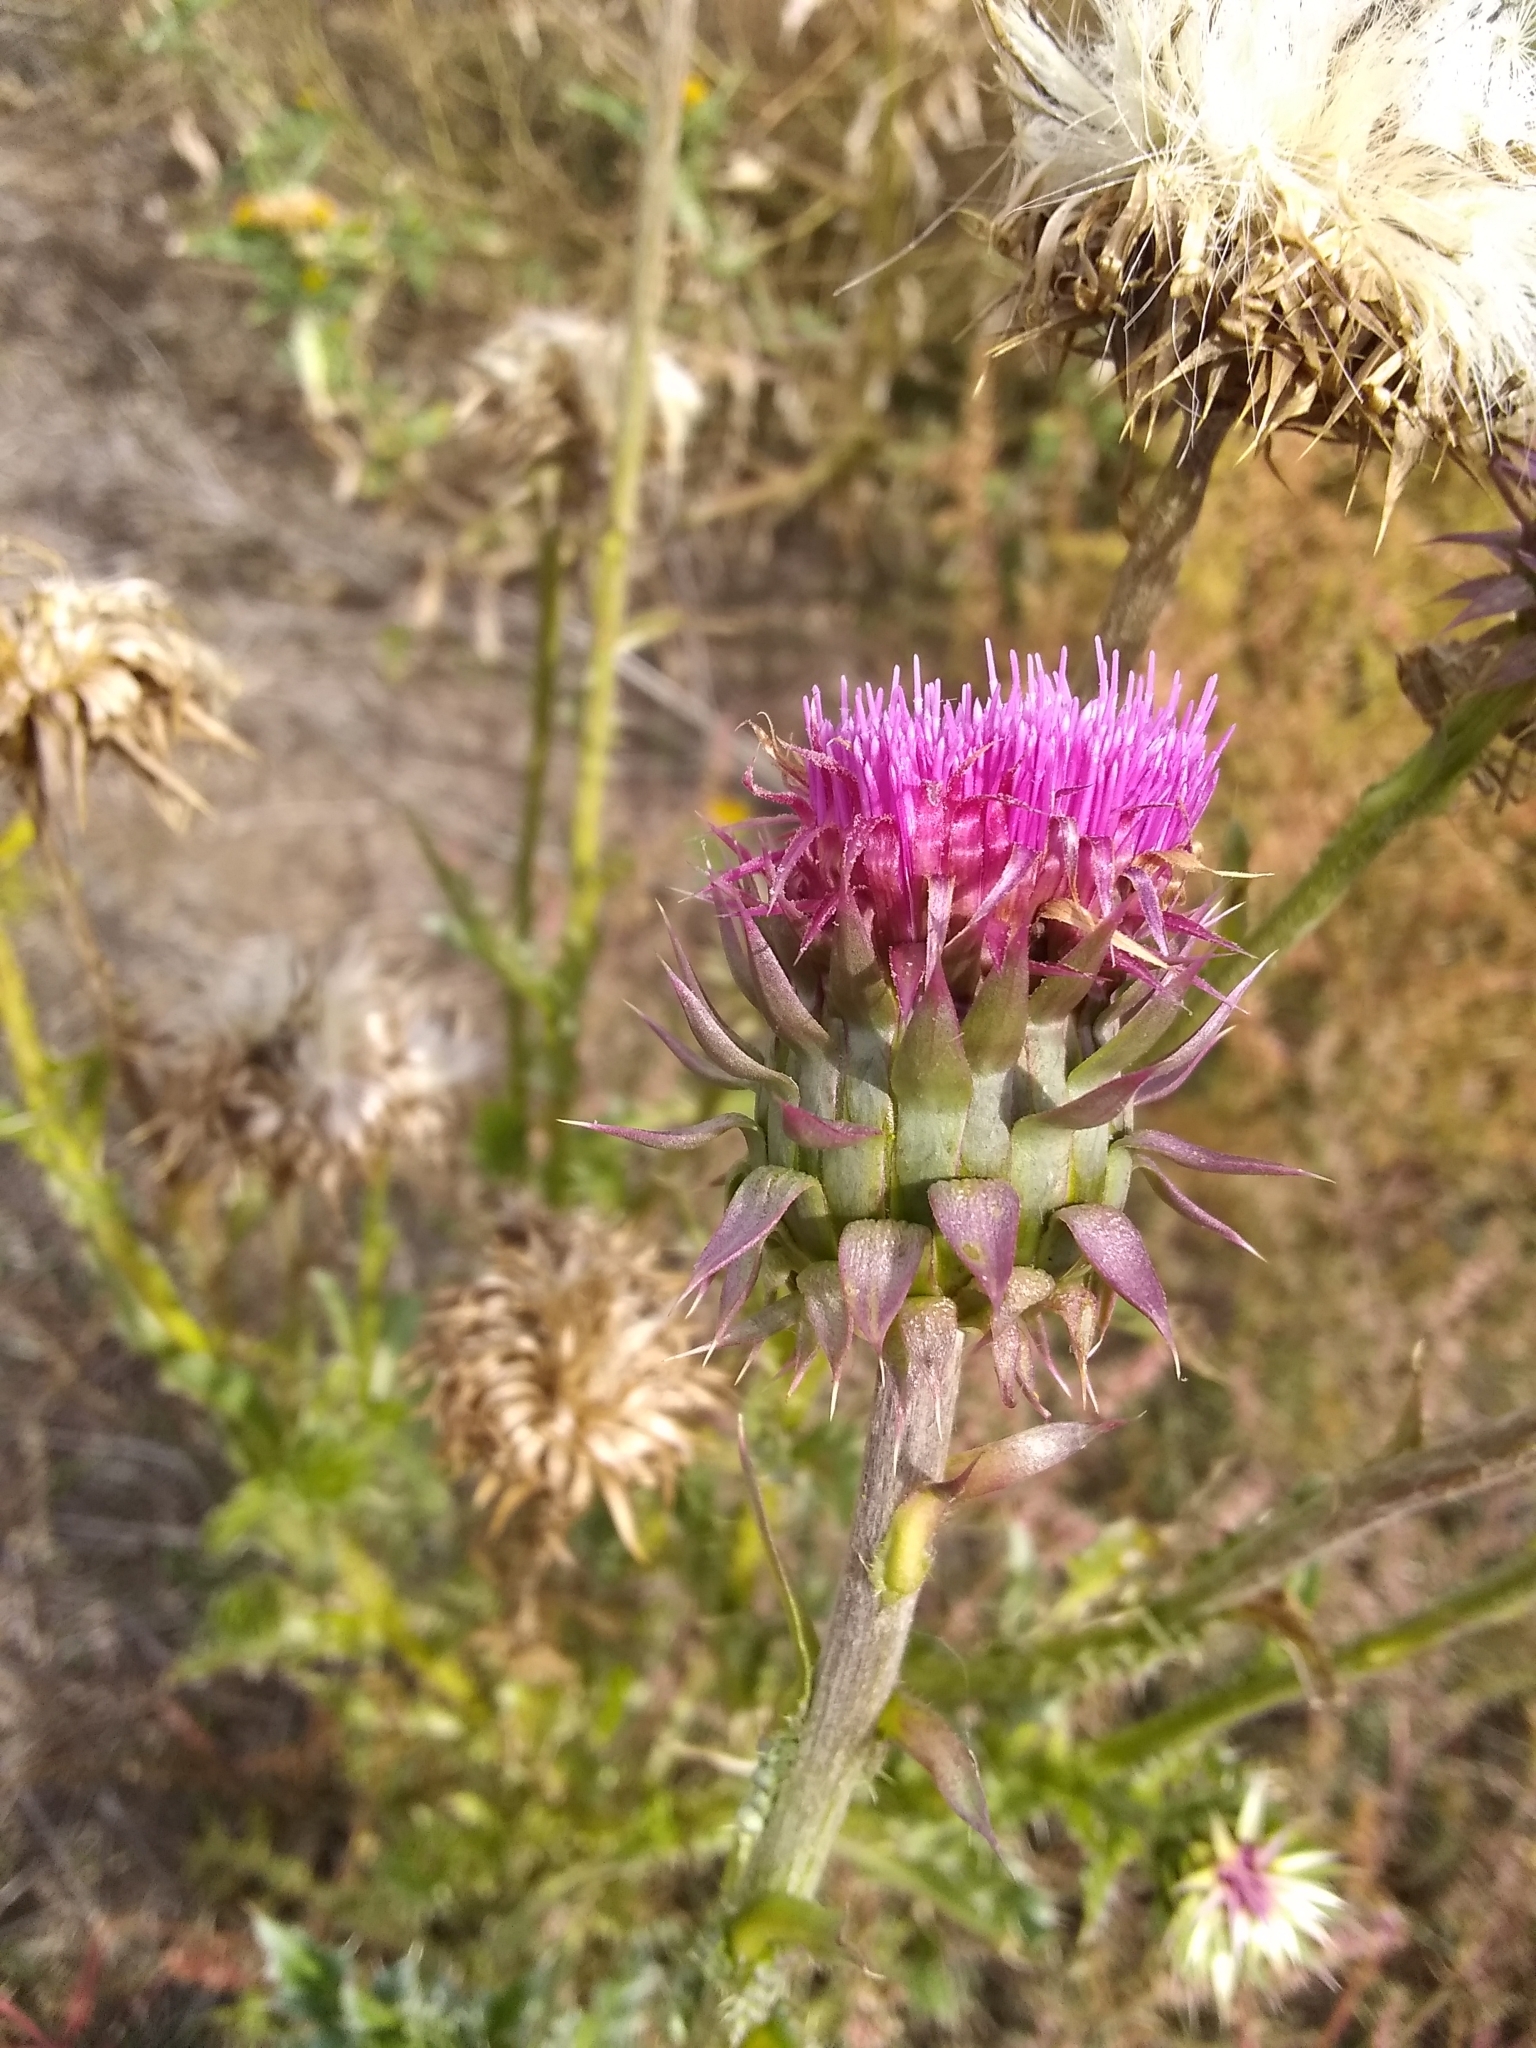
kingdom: Plantae
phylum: Tracheophyta
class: Magnoliopsida
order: Asterales
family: Asteraceae
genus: Carduus
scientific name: Carduus nutans
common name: Musk thistle
